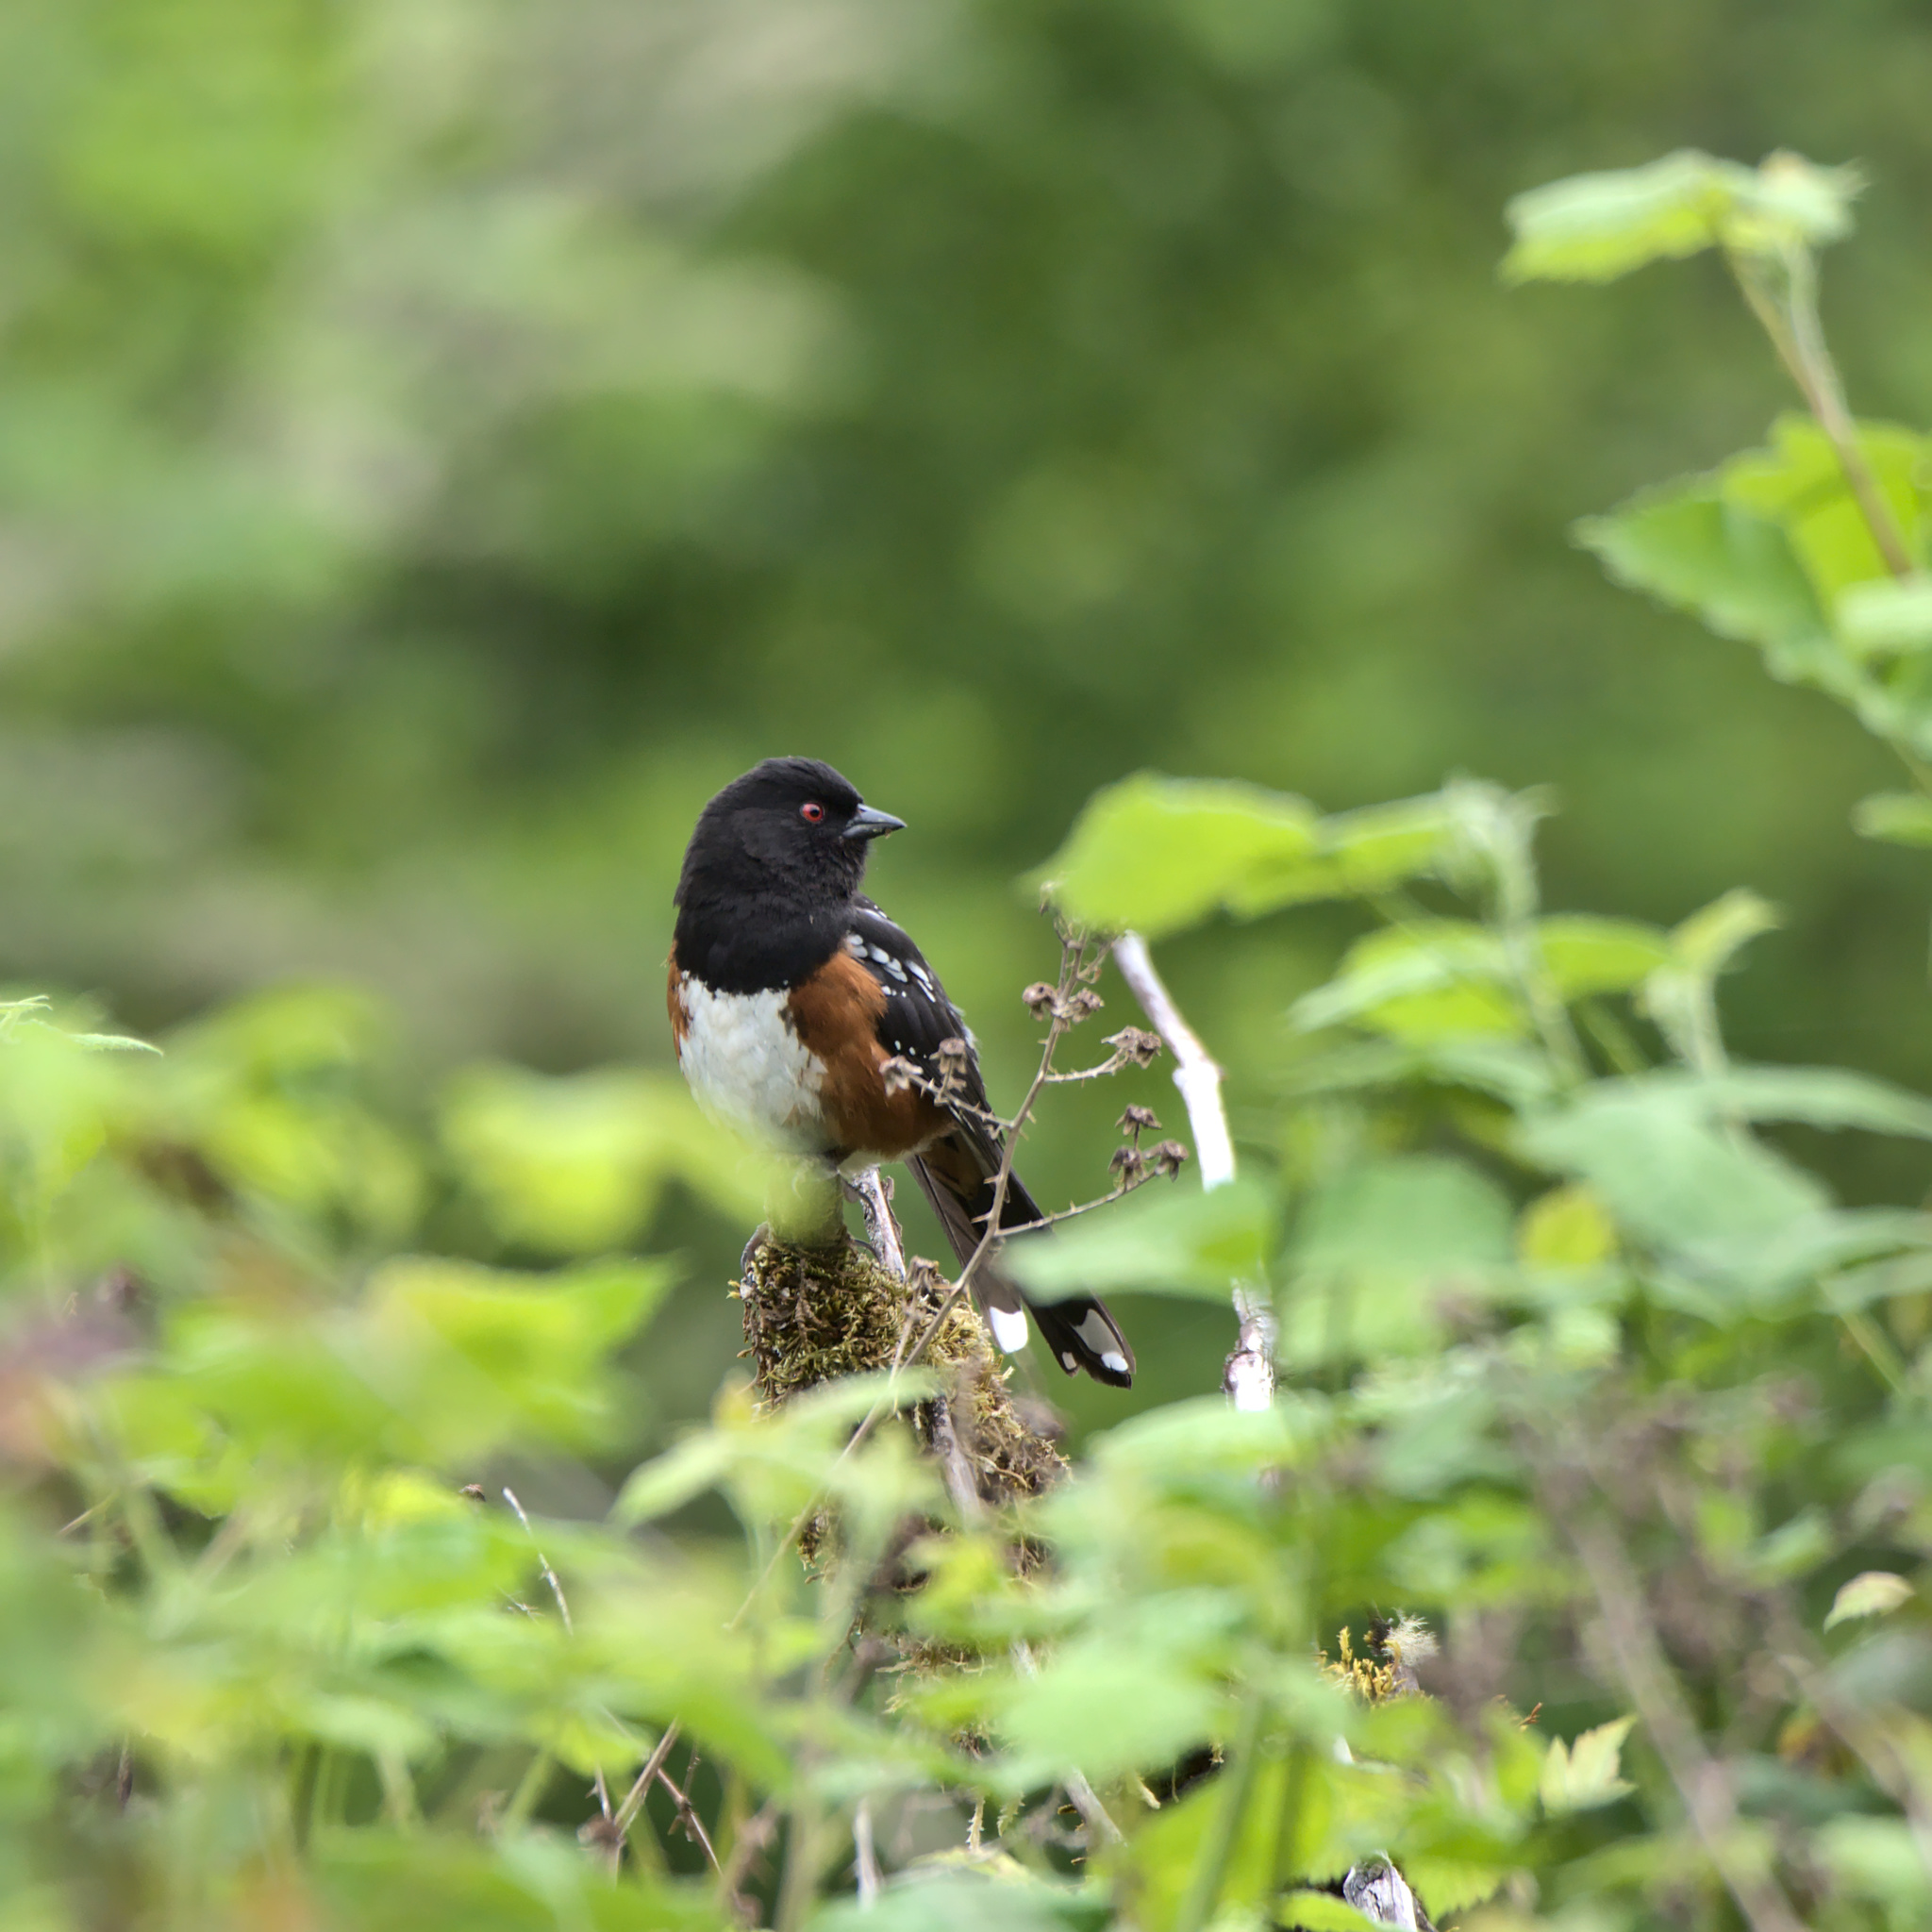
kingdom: Animalia
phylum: Chordata
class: Aves
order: Passeriformes
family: Passerellidae
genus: Pipilo
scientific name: Pipilo maculatus
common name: Spotted towhee
